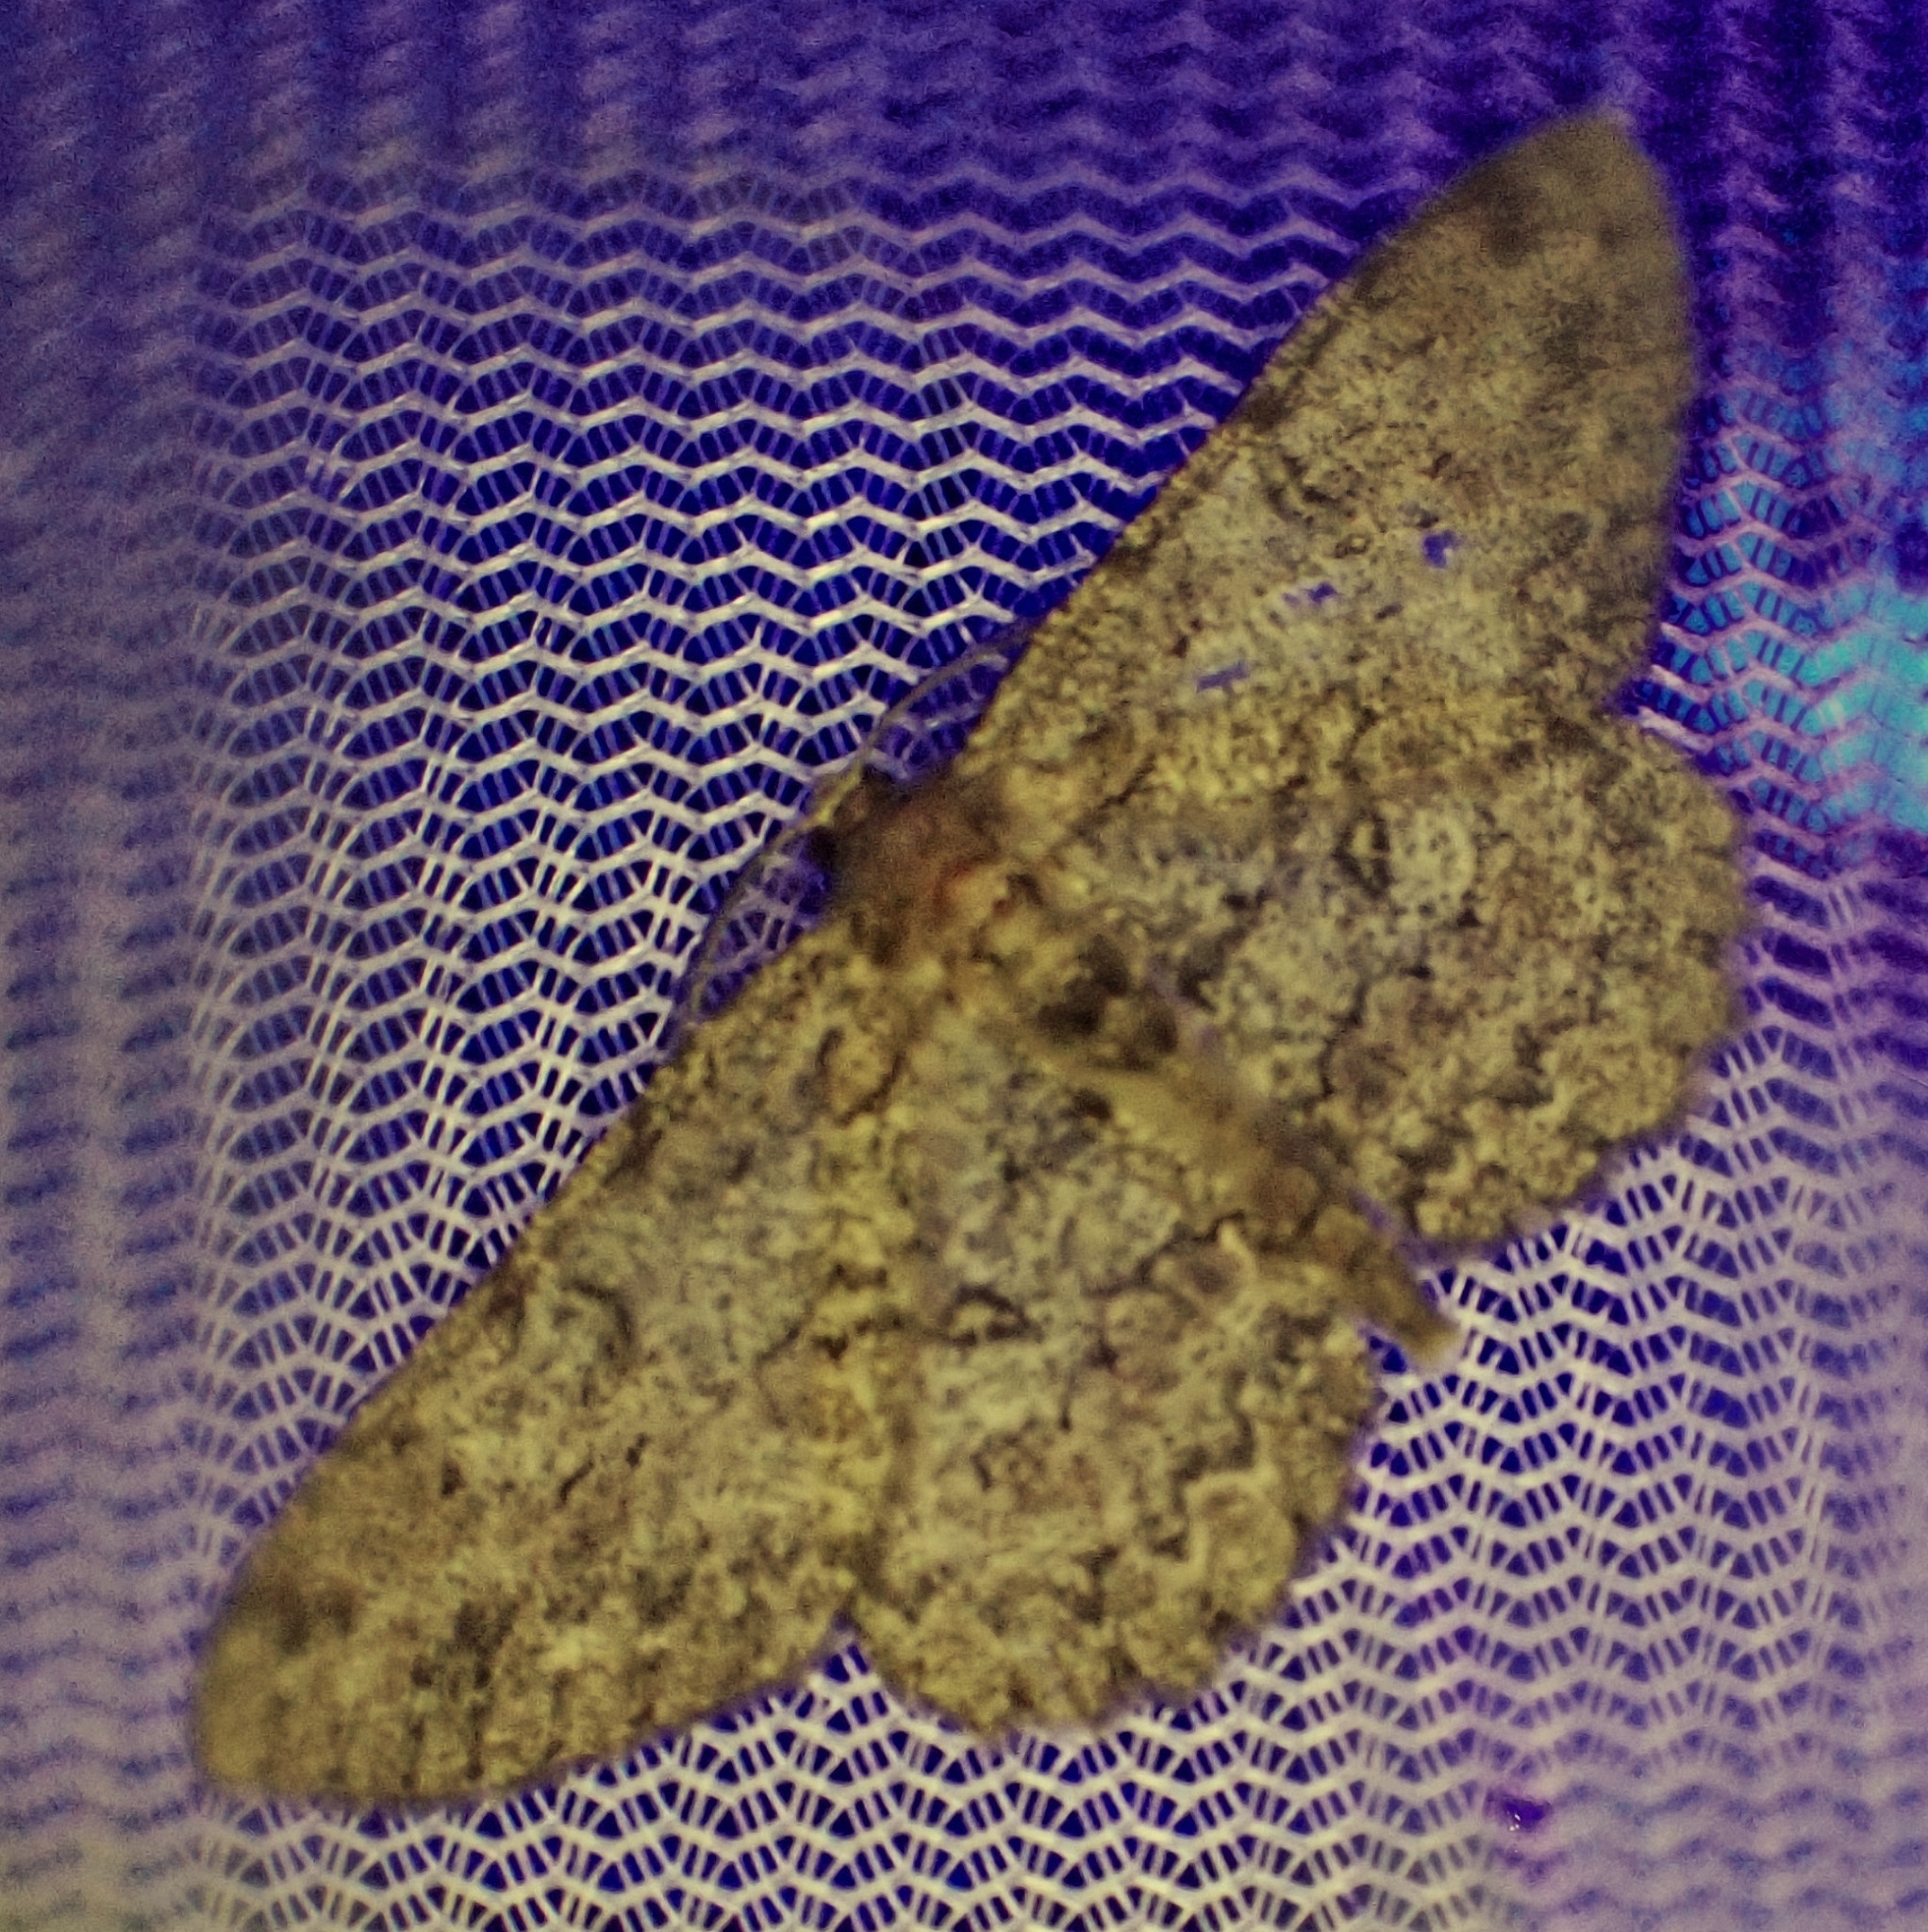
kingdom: Animalia
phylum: Arthropoda
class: Insecta
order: Lepidoptera
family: Geometridae
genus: Hypomecis
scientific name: Hypomecis punctinalis
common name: Pale oak beauty
